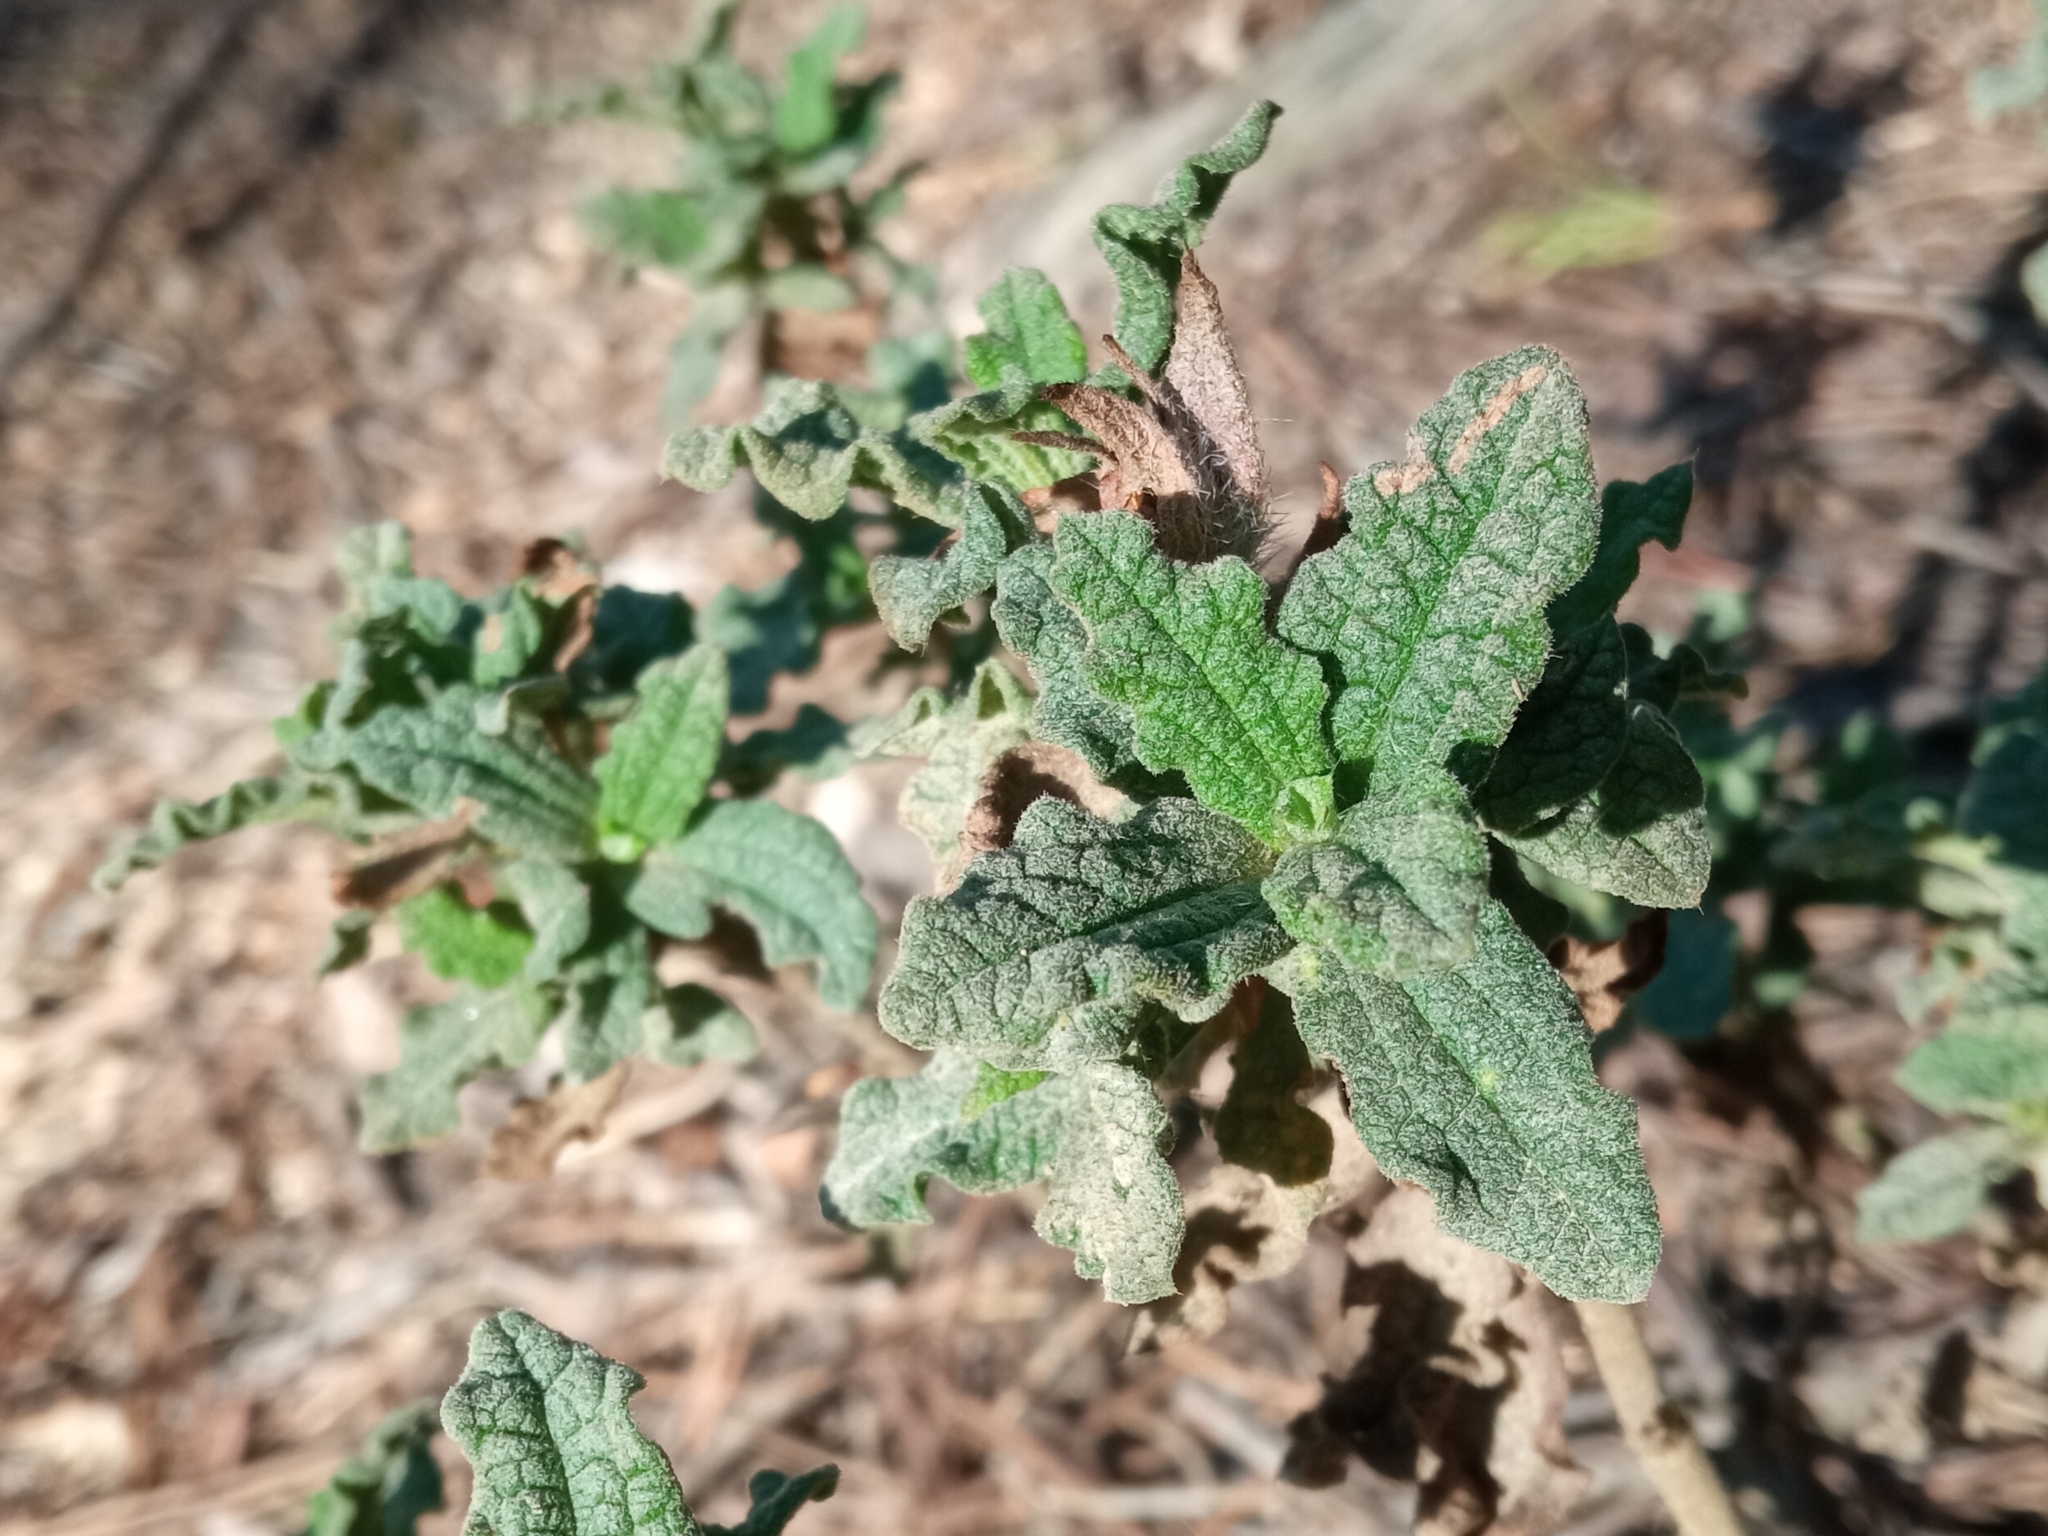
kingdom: Plantae
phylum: Tracheophyta
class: Magnoliopsida
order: Malvales
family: Cistaceae
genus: Cistus
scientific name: Cistus crispus
